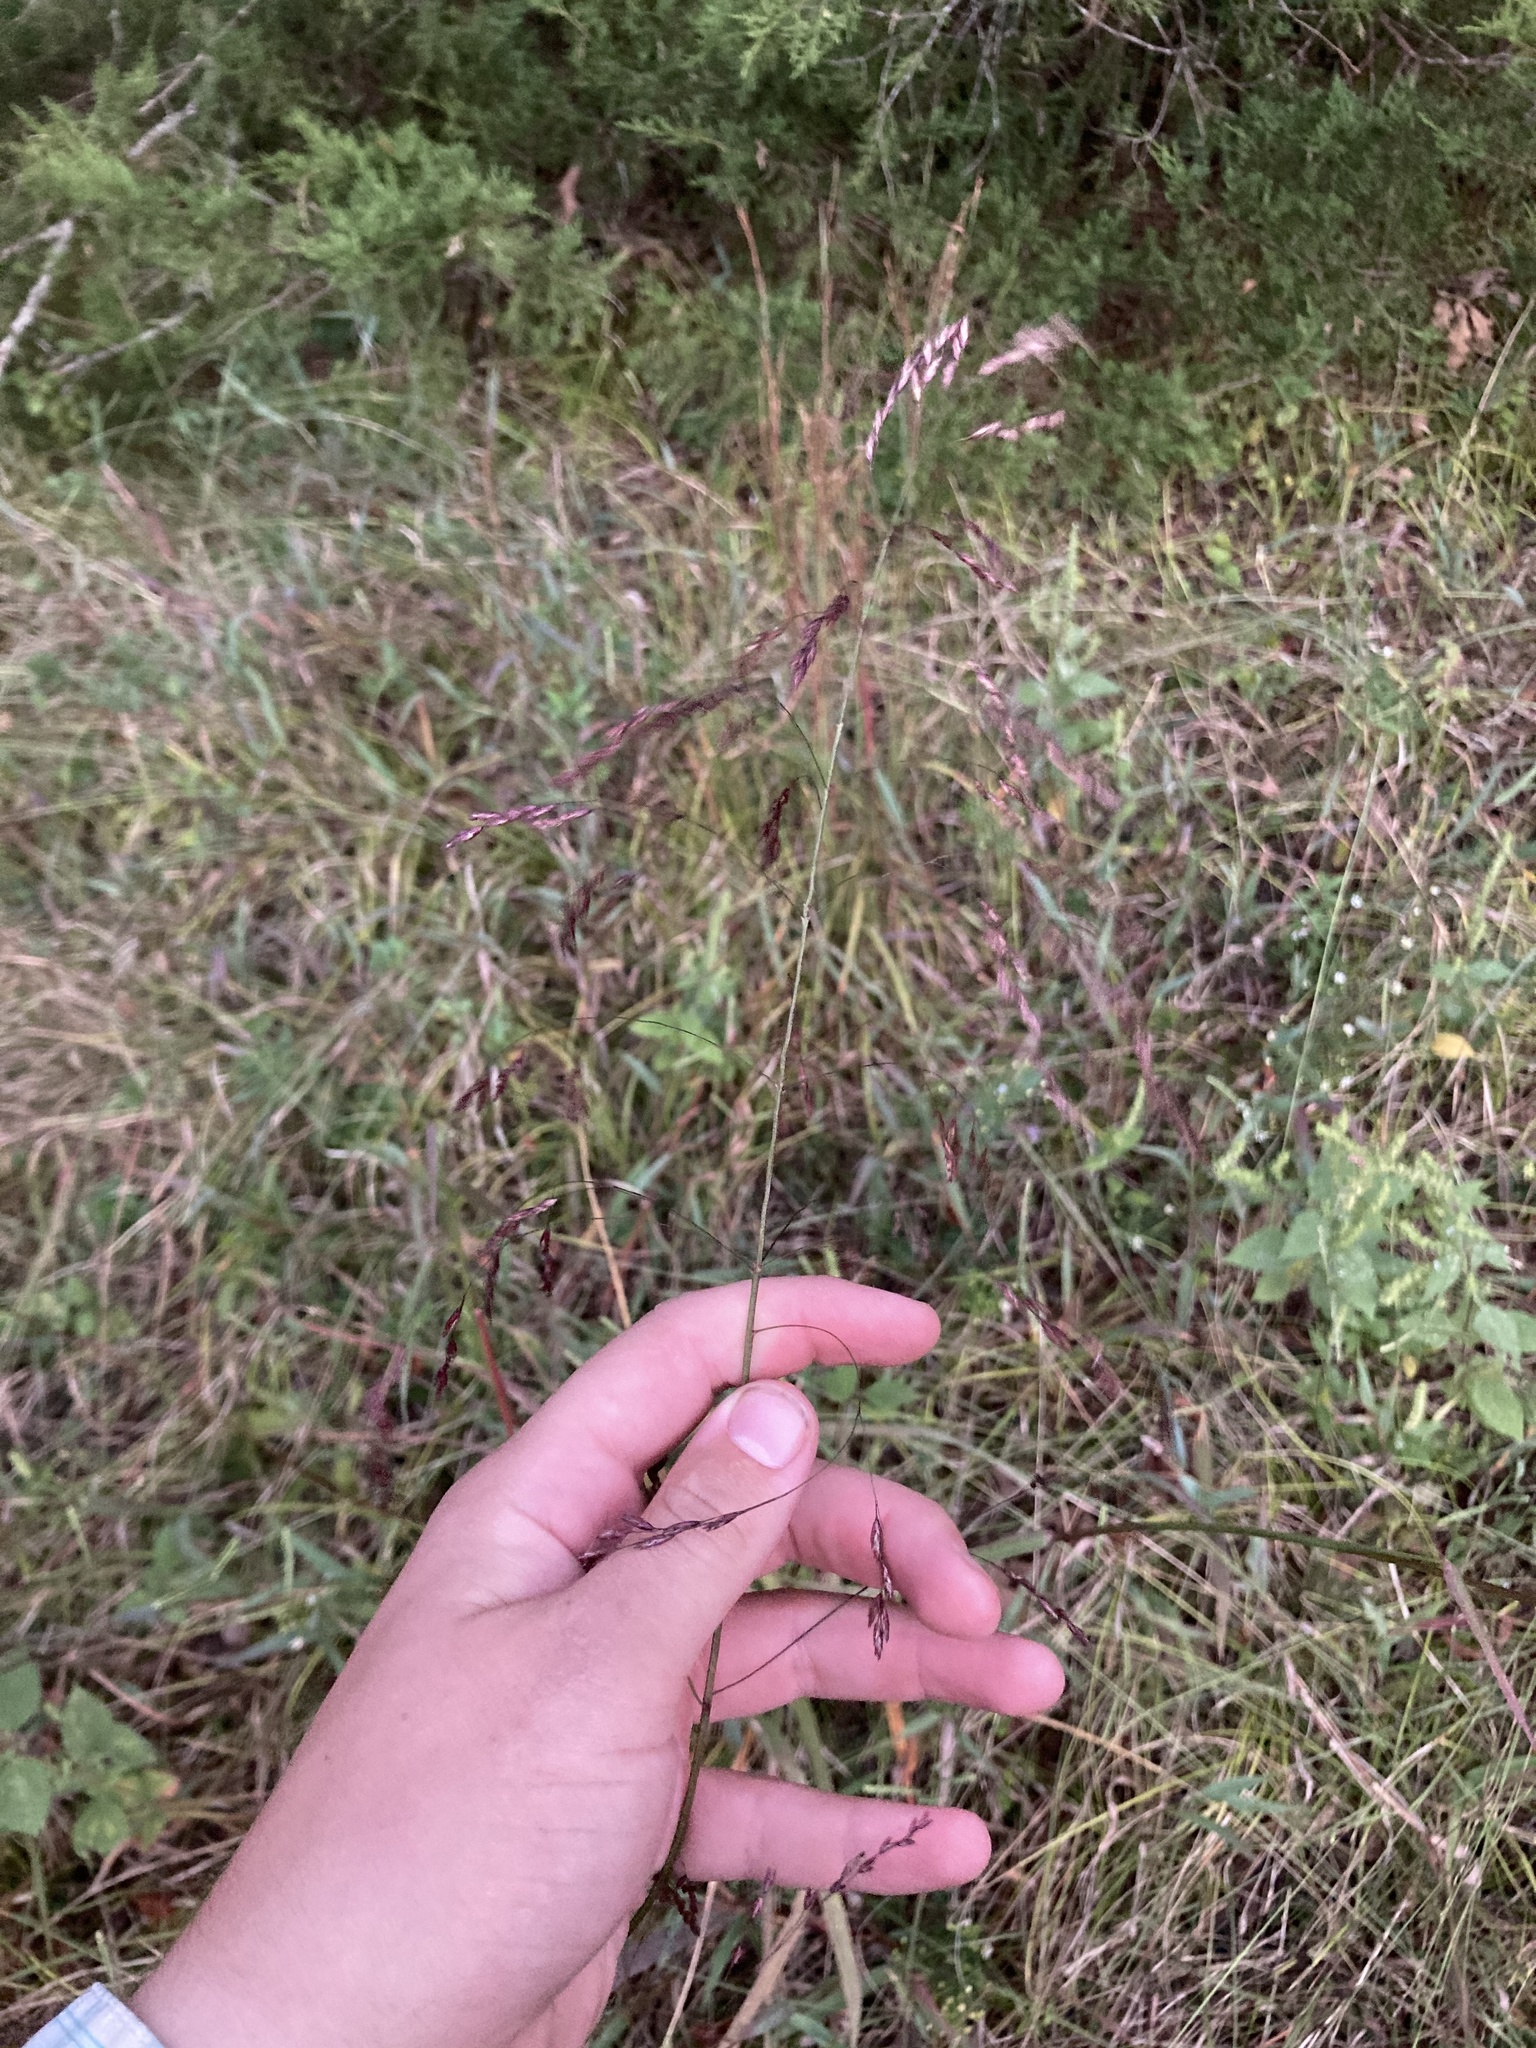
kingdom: Plantae
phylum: Tracheophyta
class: Liliopsida
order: Poales
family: Poaceae
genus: Tridens
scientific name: Tridens flavus
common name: Purpletop
